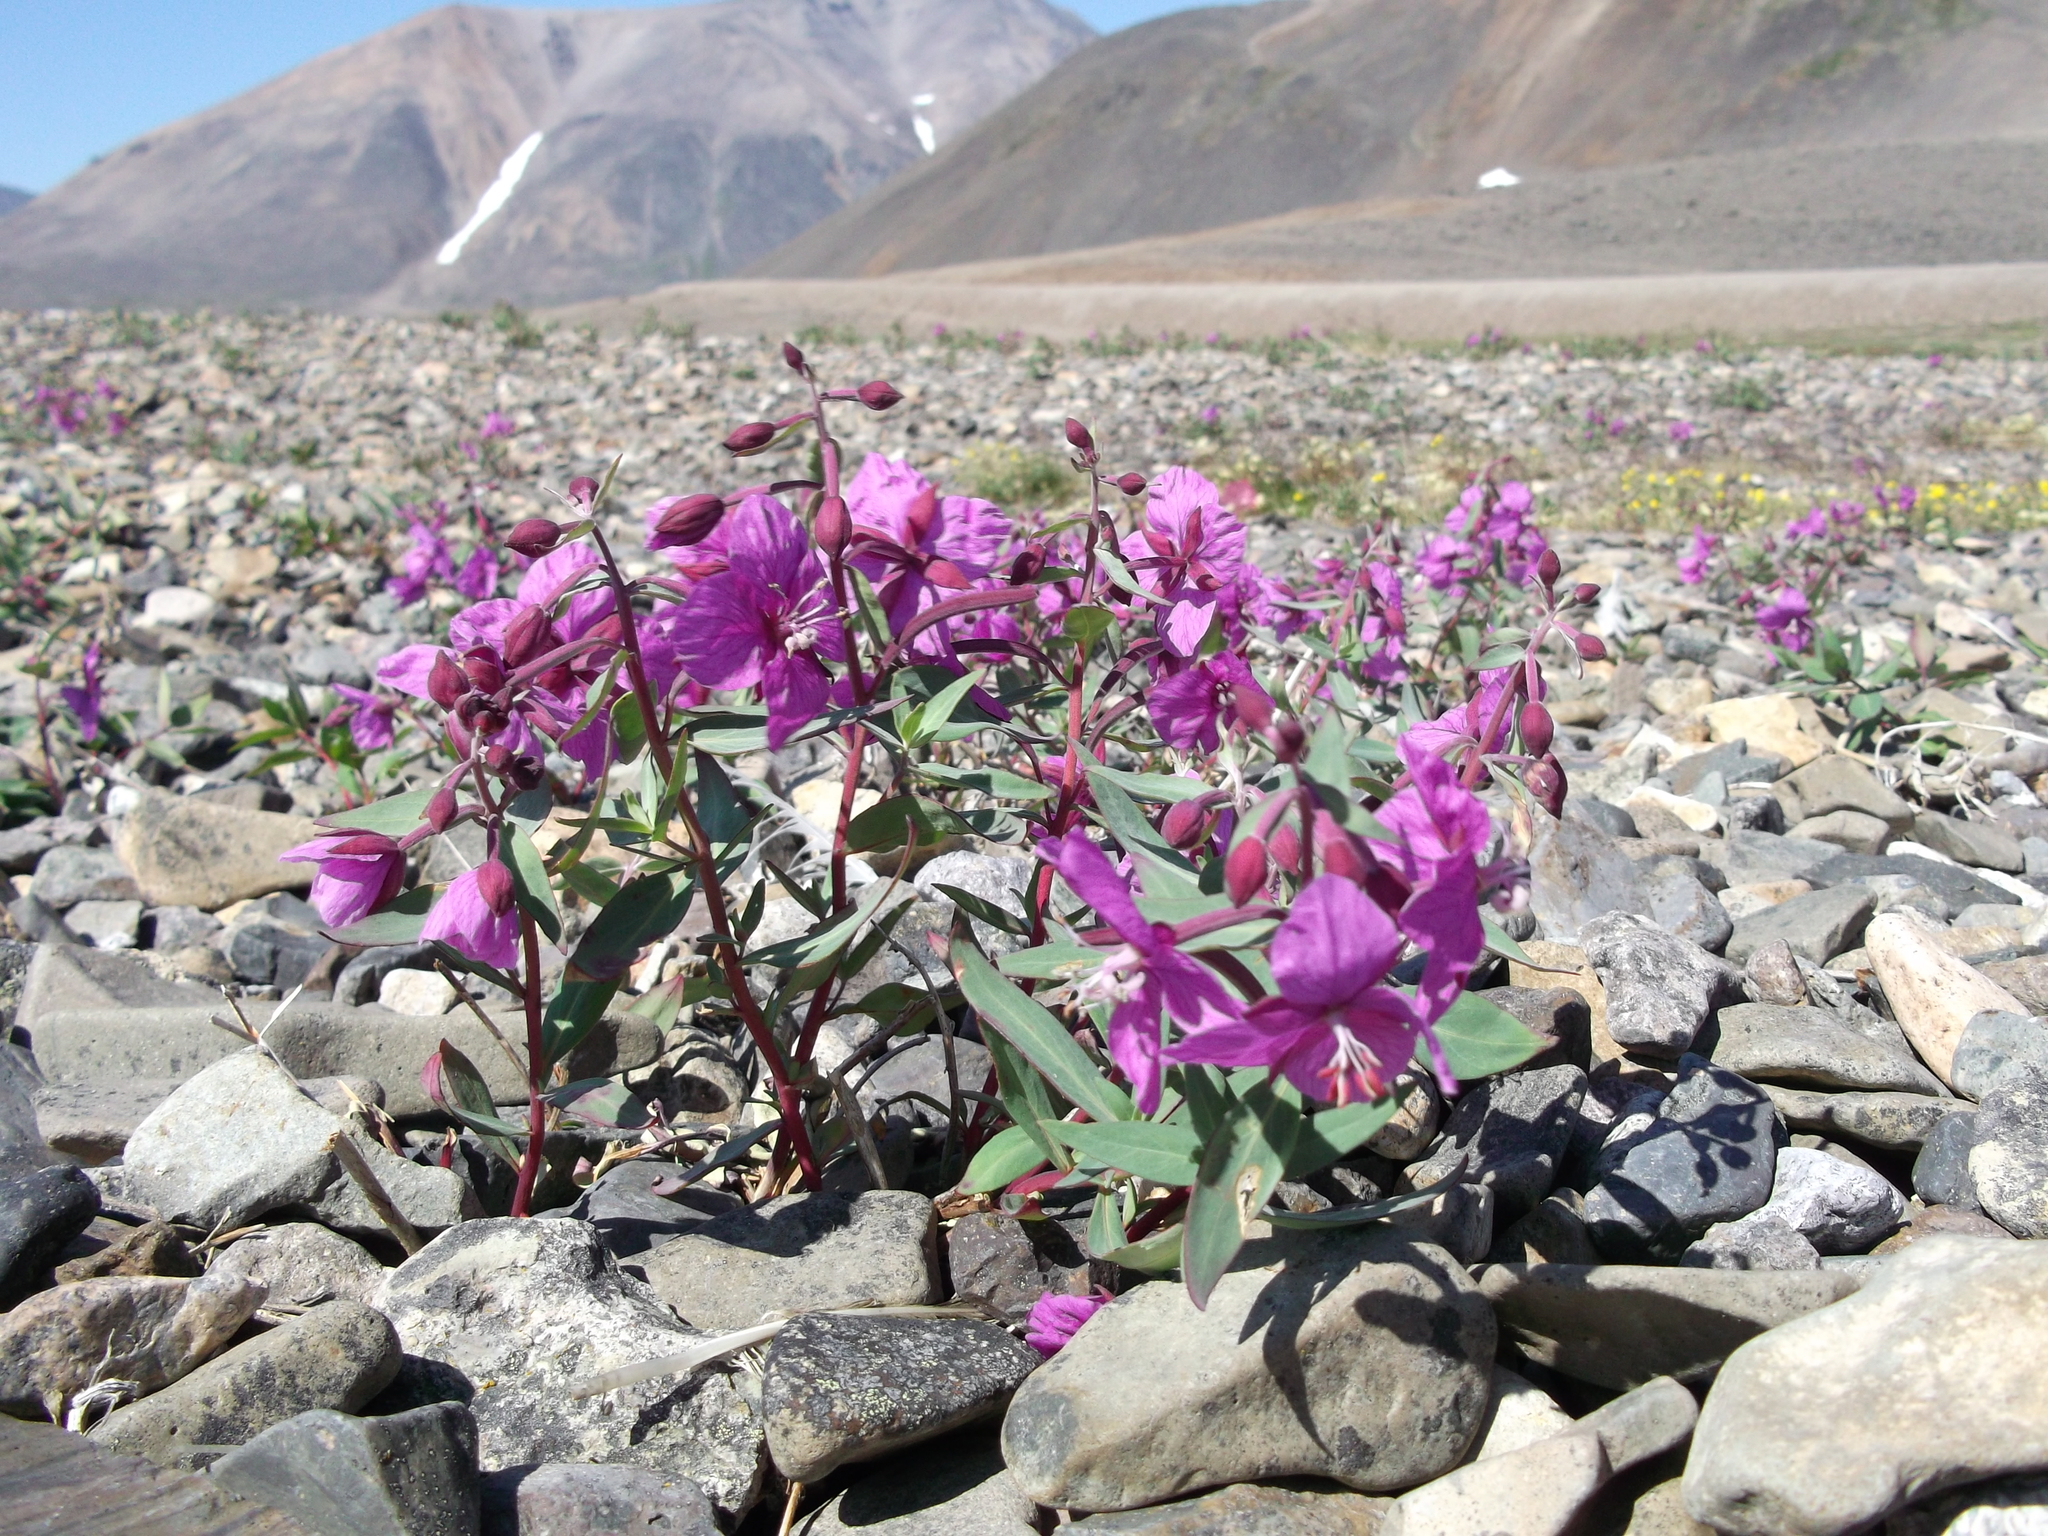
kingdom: Plantae
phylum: Tracheophyta
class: Magnoliopsida
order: Myrtales
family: Onagraceae
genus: Chamaenerion
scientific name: Chamaenerion latifolium
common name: Dwarf fireweed
